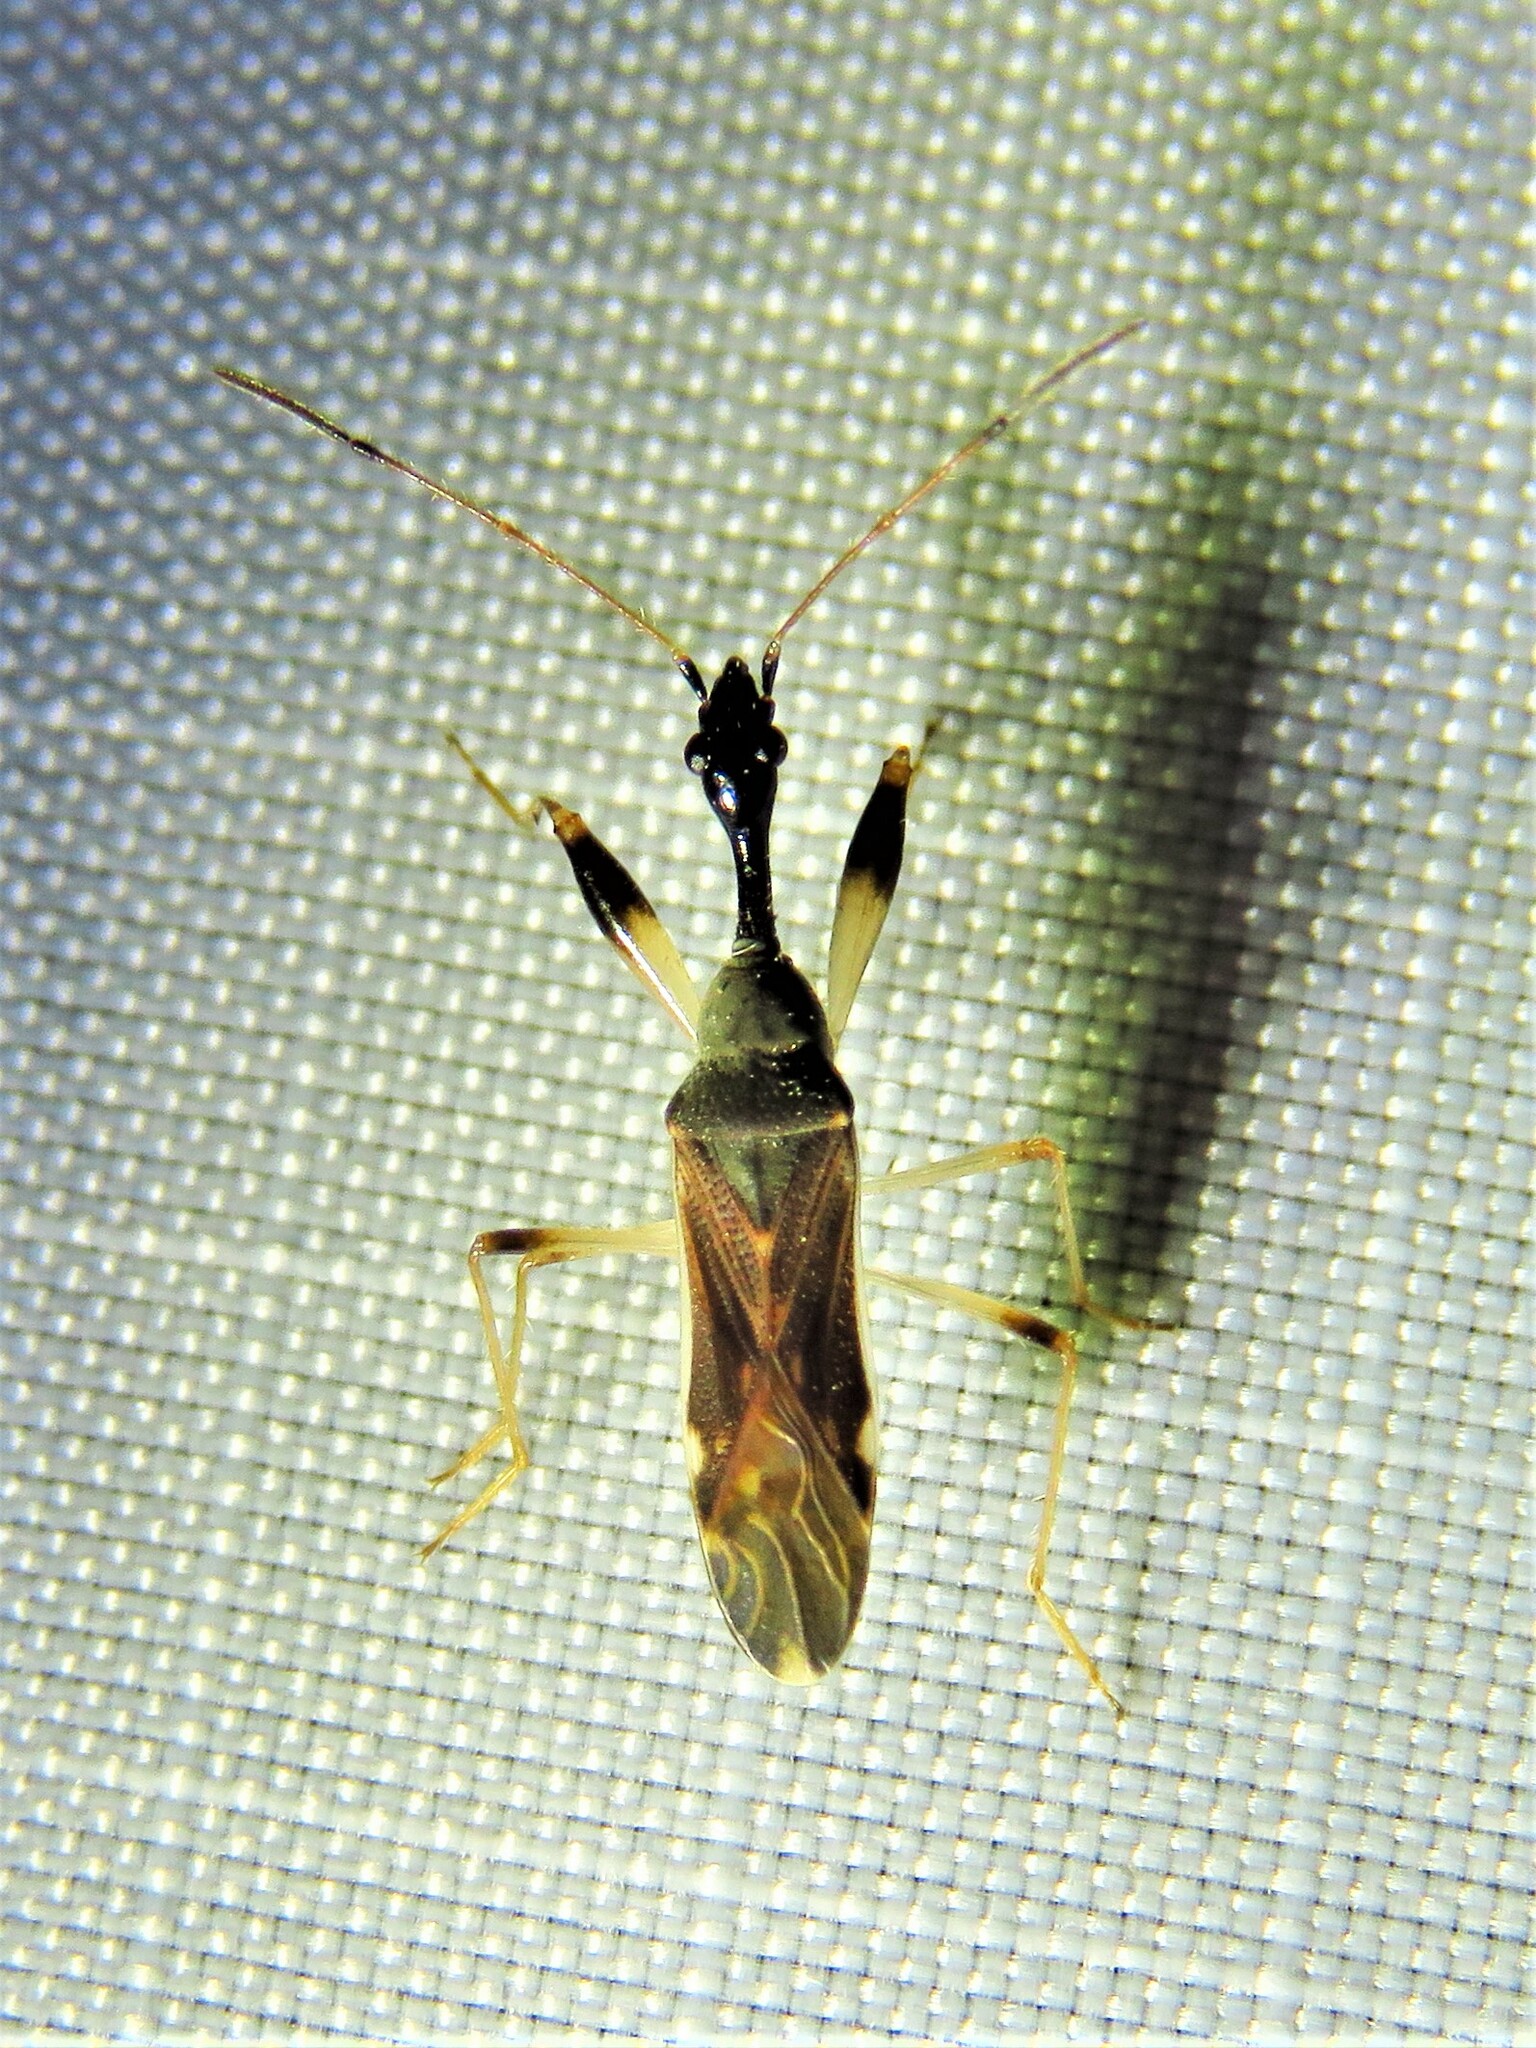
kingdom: Animalia
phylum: Arthropoda
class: Insecta
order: Hemiptera
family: Rhyparochromidae
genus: Myodocha
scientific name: Myodocha serripes
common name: Long-necked seed bug
